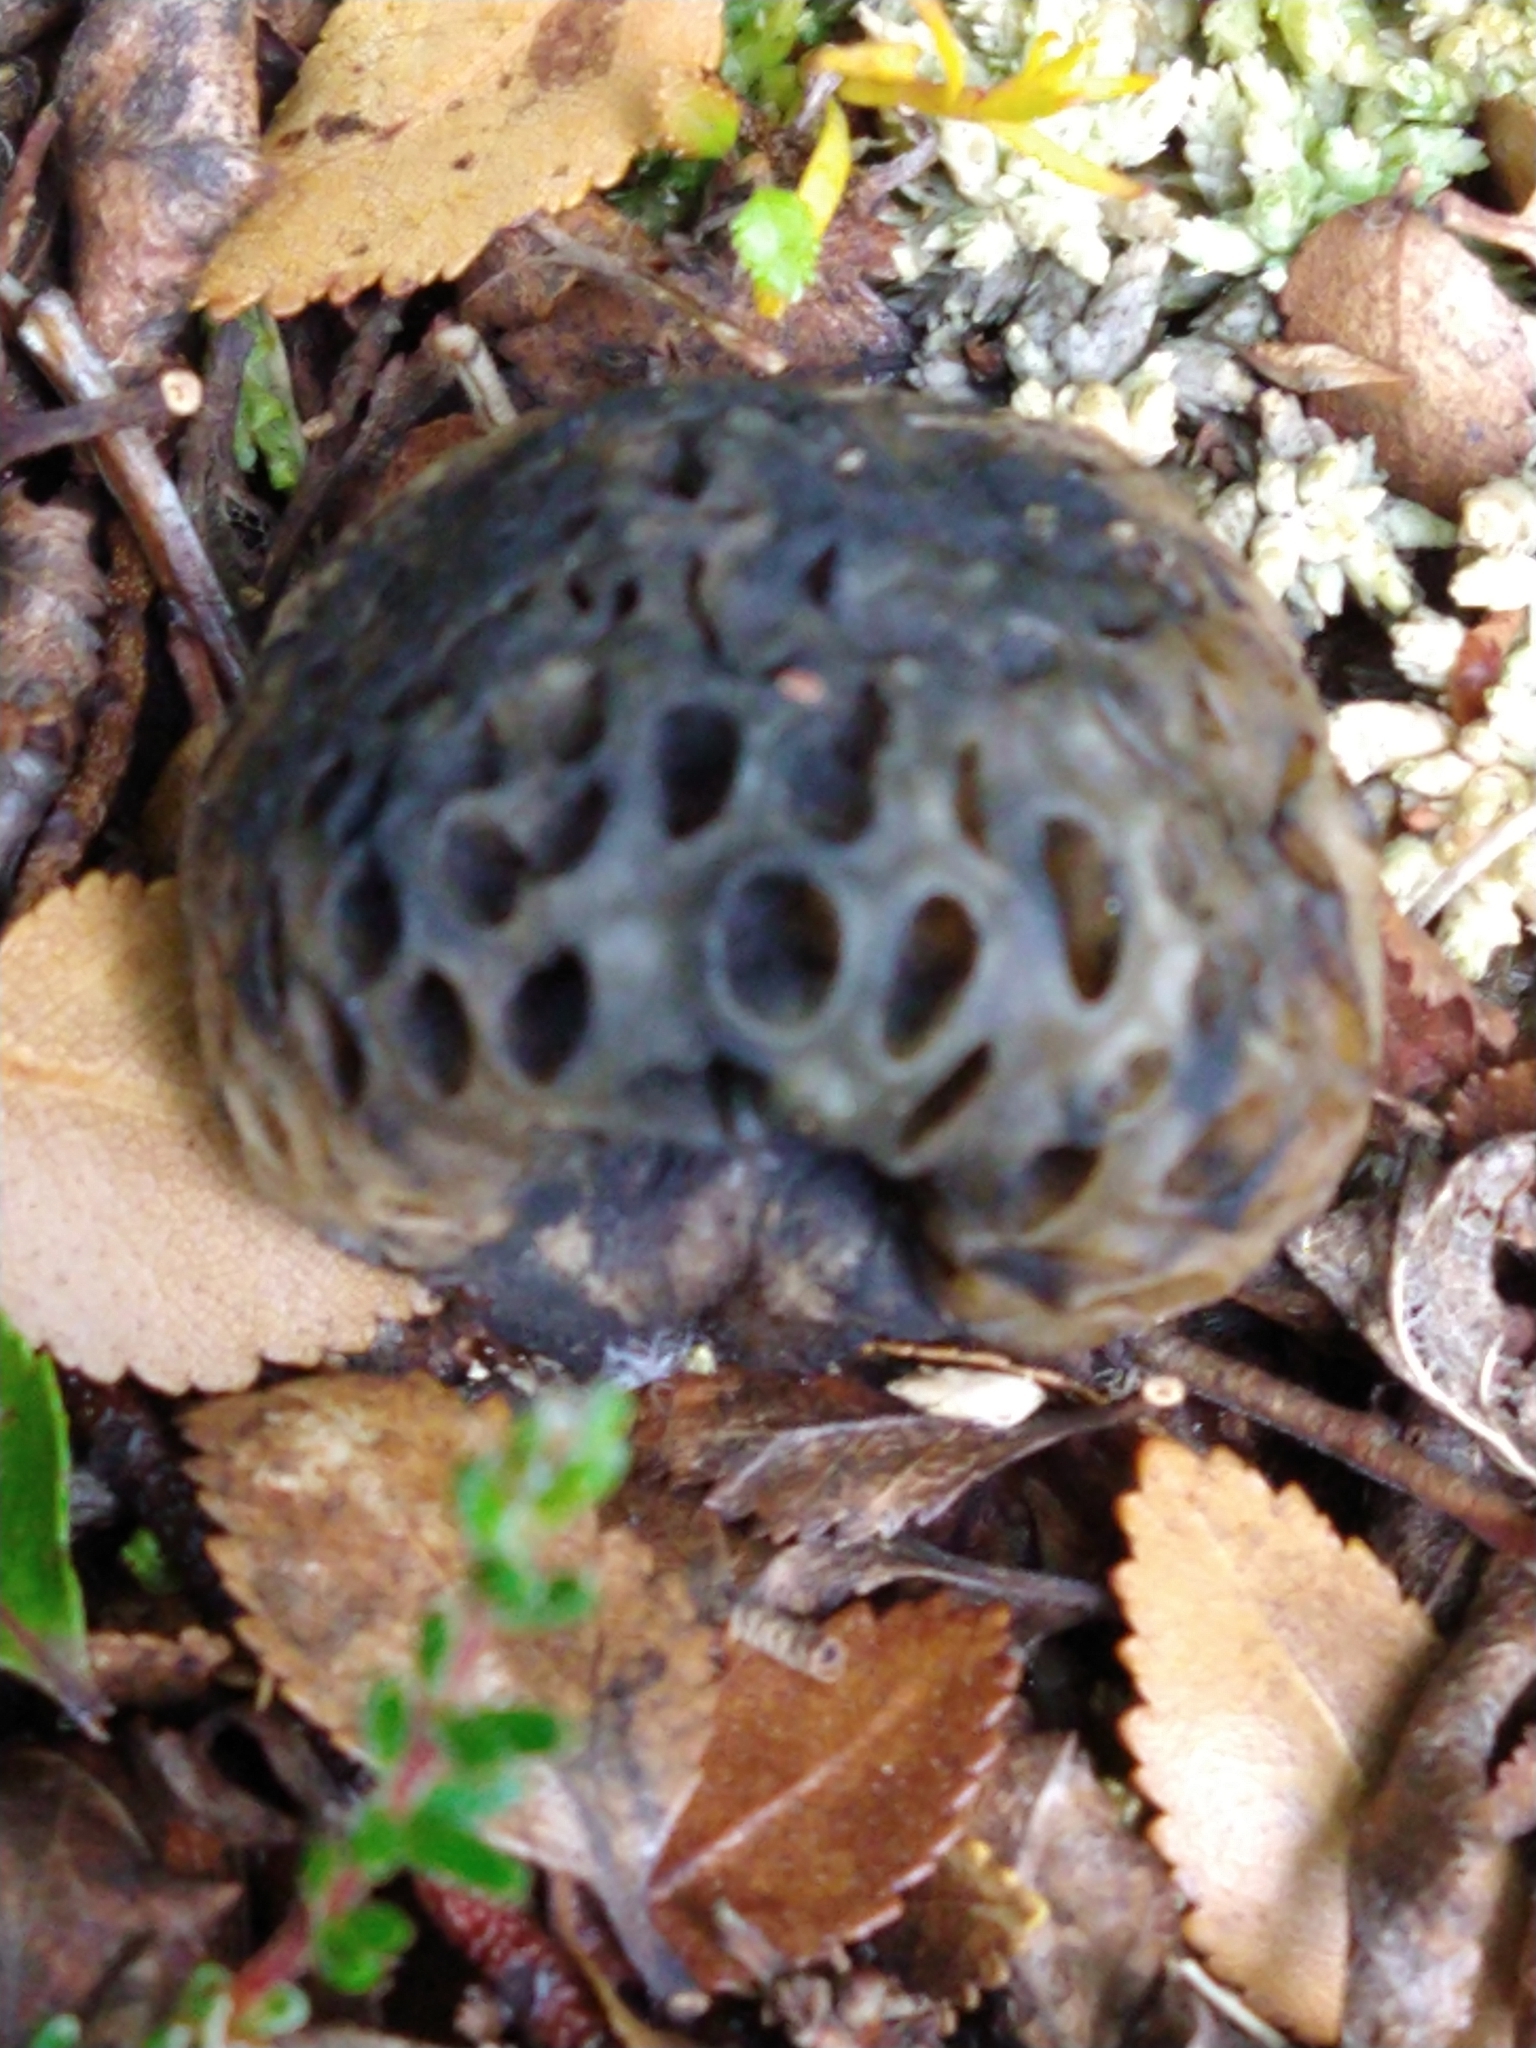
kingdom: Fungi
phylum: Ascomycota
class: Leotiomycetes
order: Cyttariales
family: Cyttariaceae
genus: Cyttaria
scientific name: Cyttaria hariotii
